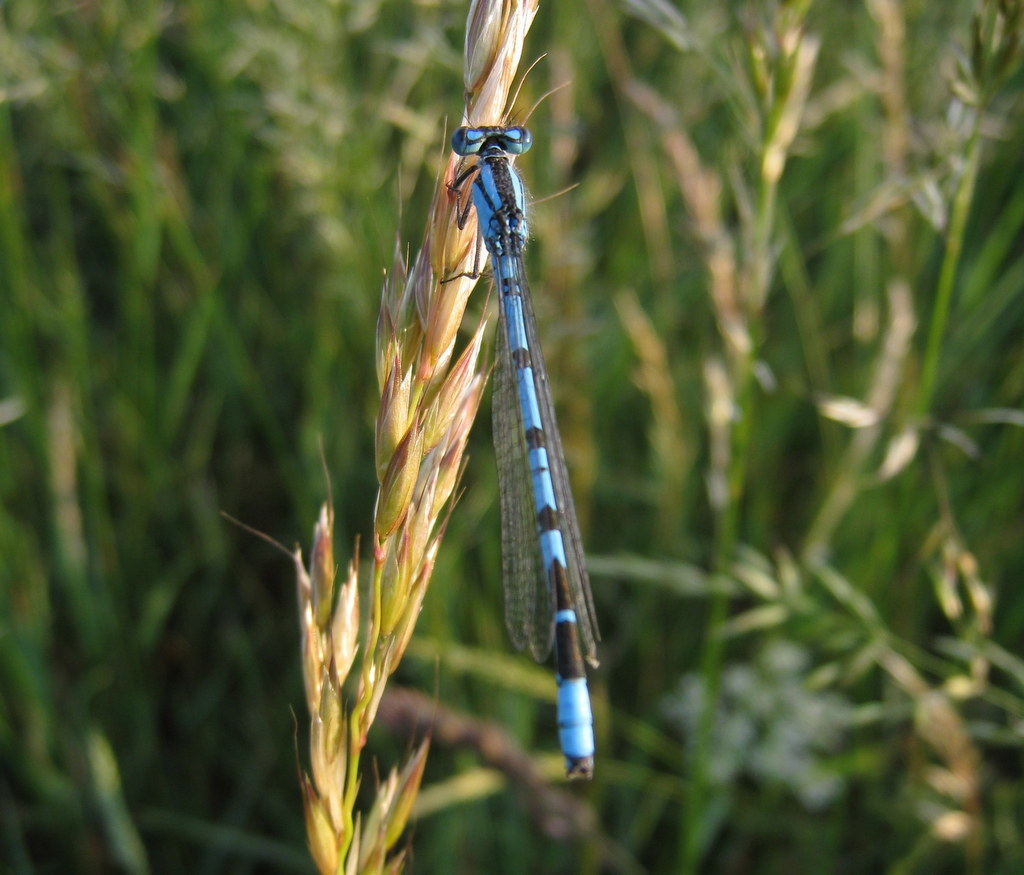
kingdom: Animalia
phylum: Arthropoda
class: Insecta
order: Odonata
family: Coenagrionidae
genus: Enallagma
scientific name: Enallagma cyathigerum
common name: Common blue damselfly
